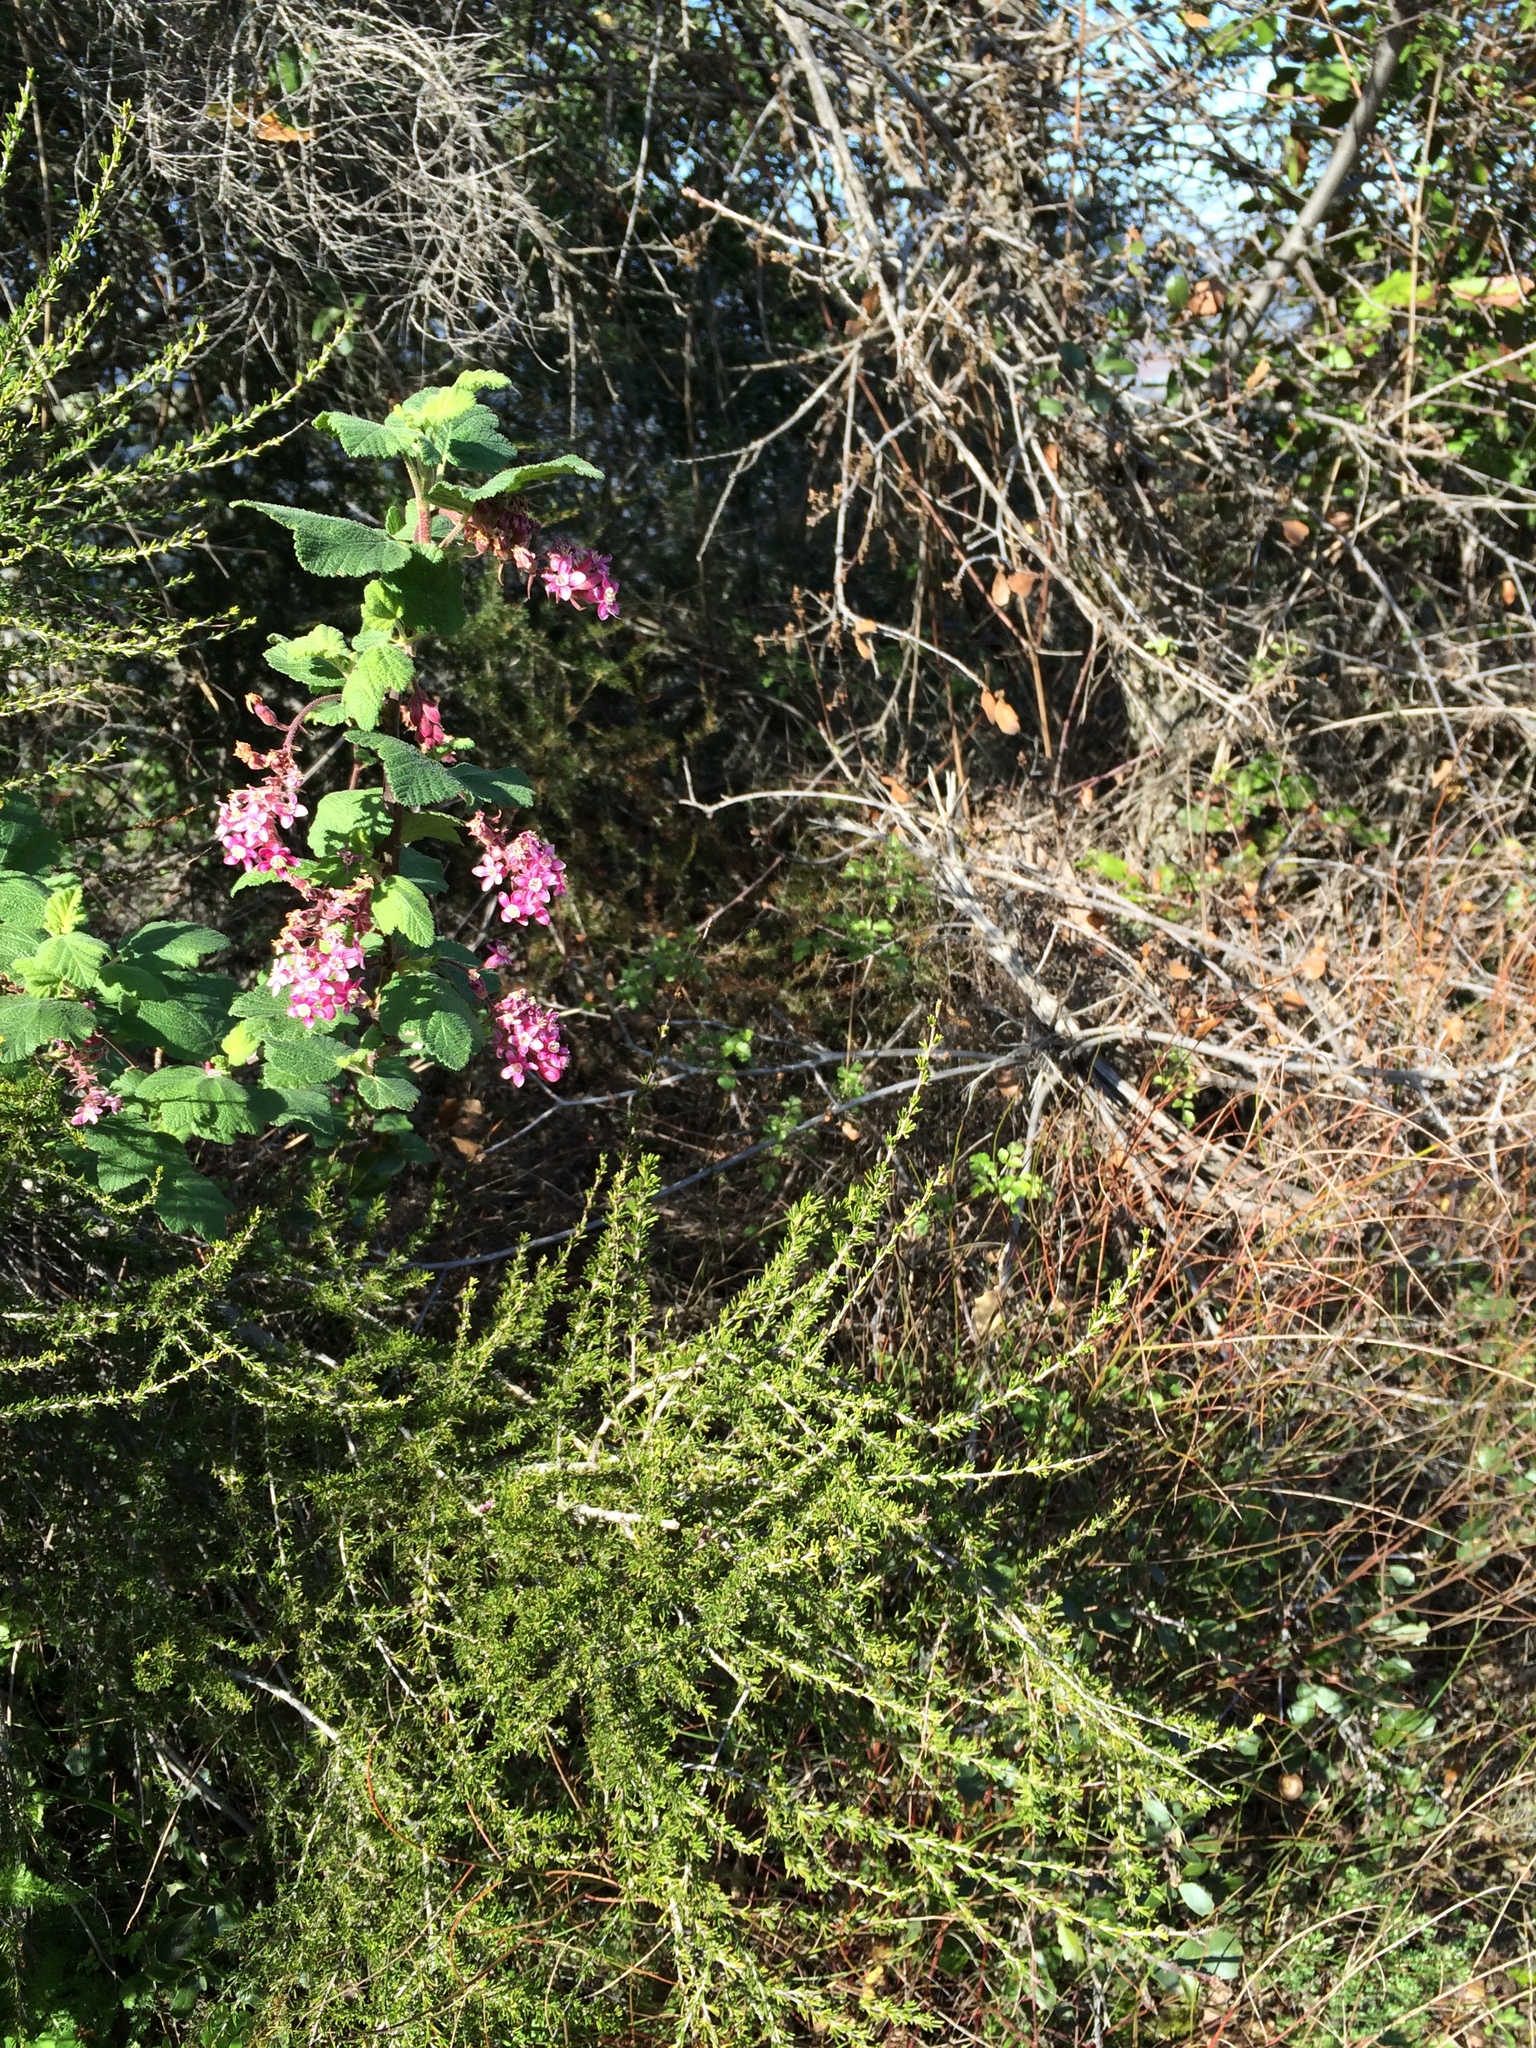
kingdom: Plantae
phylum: Tracheophyta
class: Magnoliopsida
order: Saxifragales
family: Grossulariaceae
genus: Ribes
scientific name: Ribes malvaceum
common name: Chaparral currant
